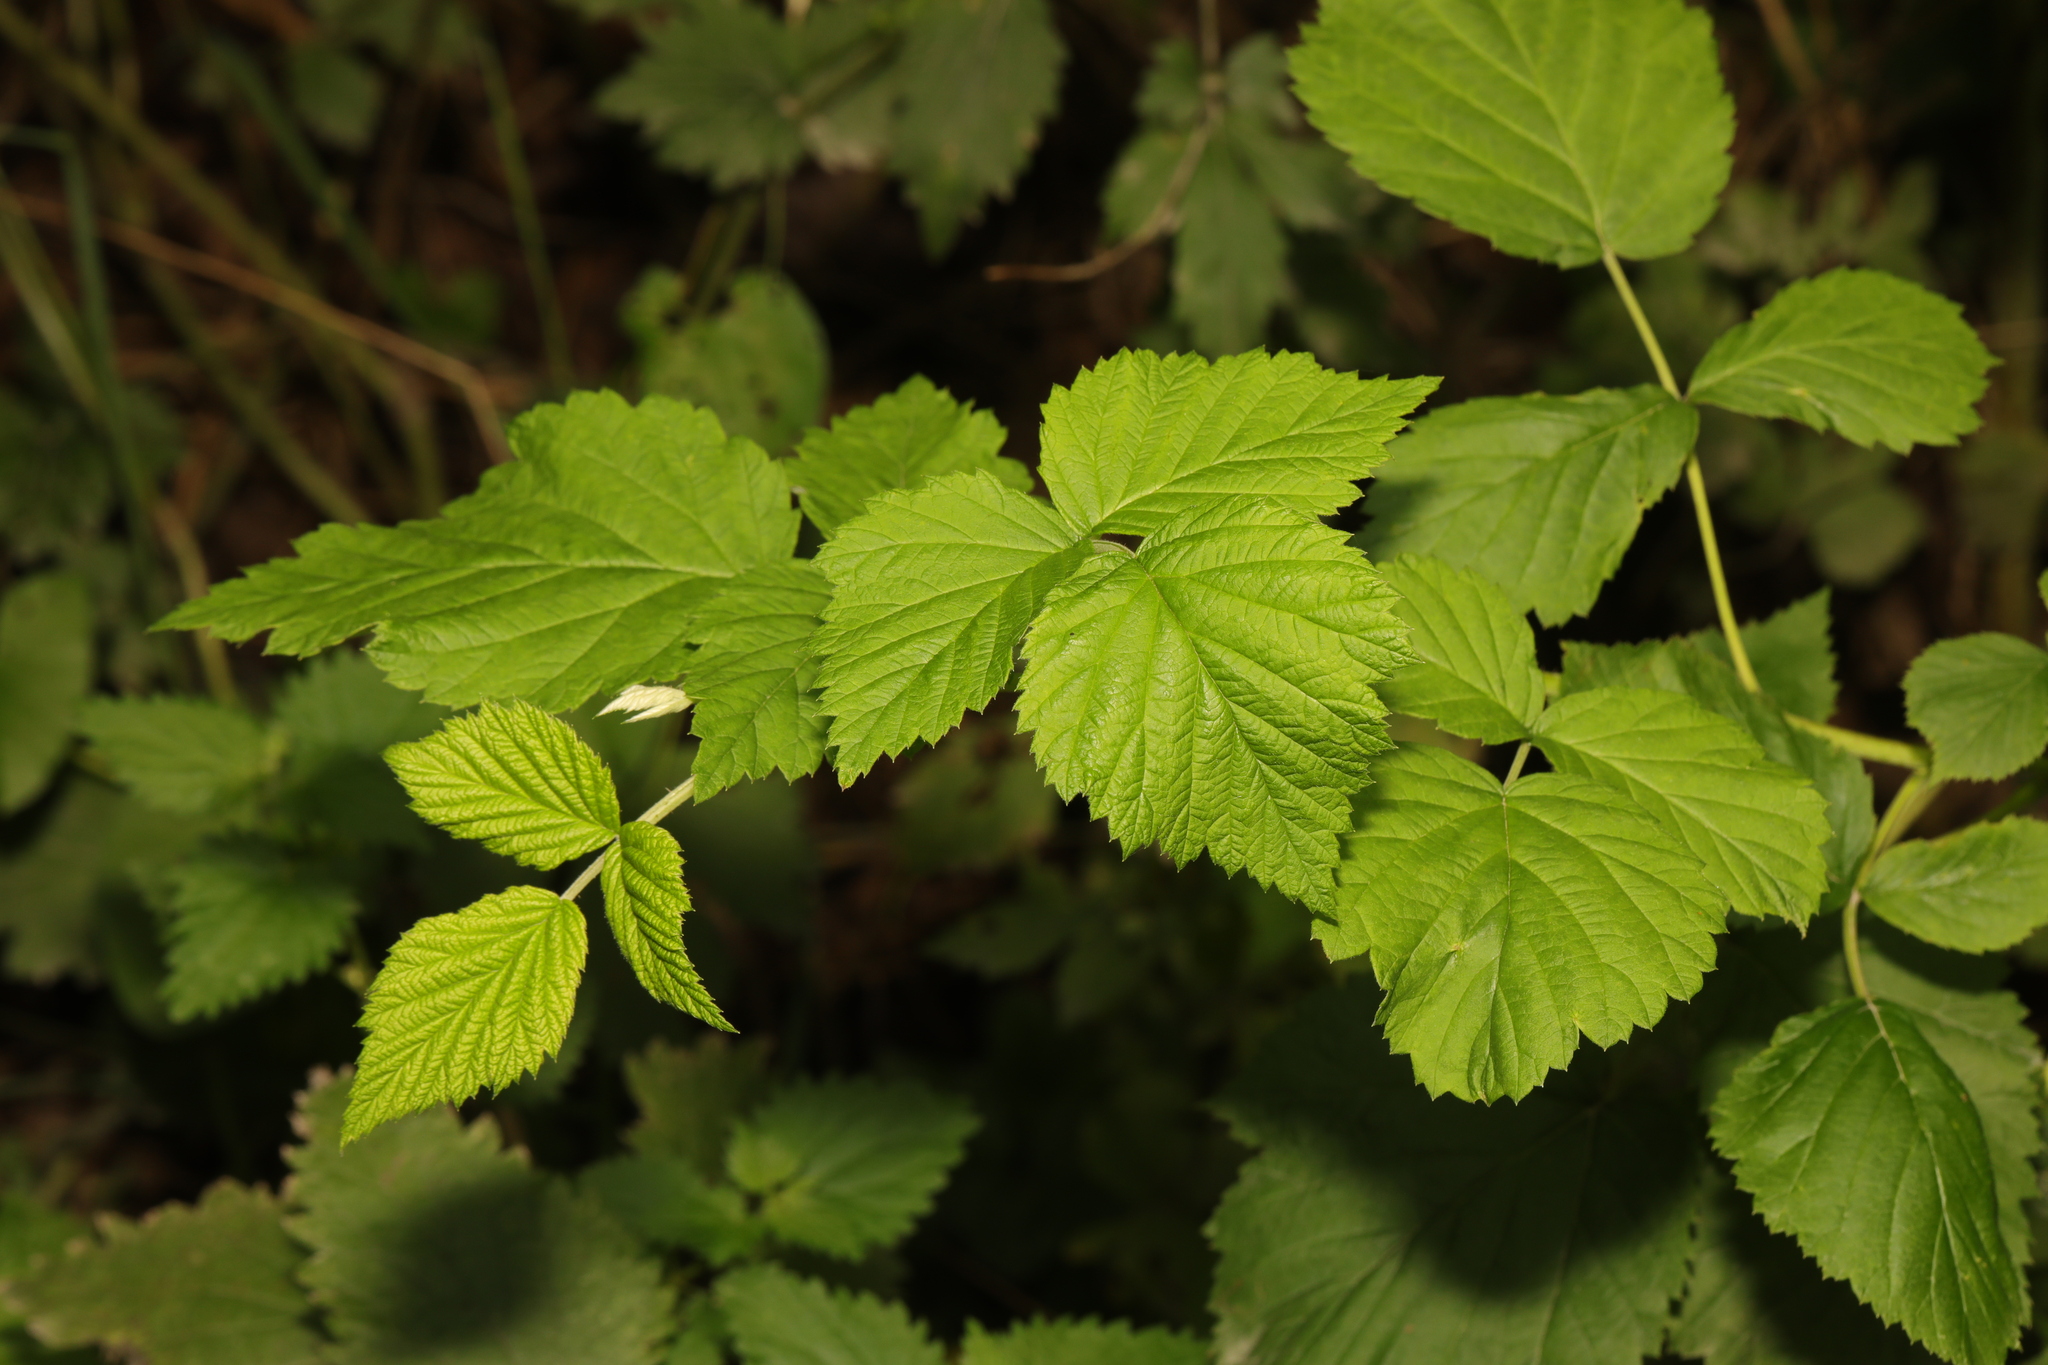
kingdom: Plantae
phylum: Tracheophyta
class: Magnoliopsida
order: Rosales
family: Rosaceae
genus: Rubus
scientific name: Rubus idaeus
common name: Raspberry
